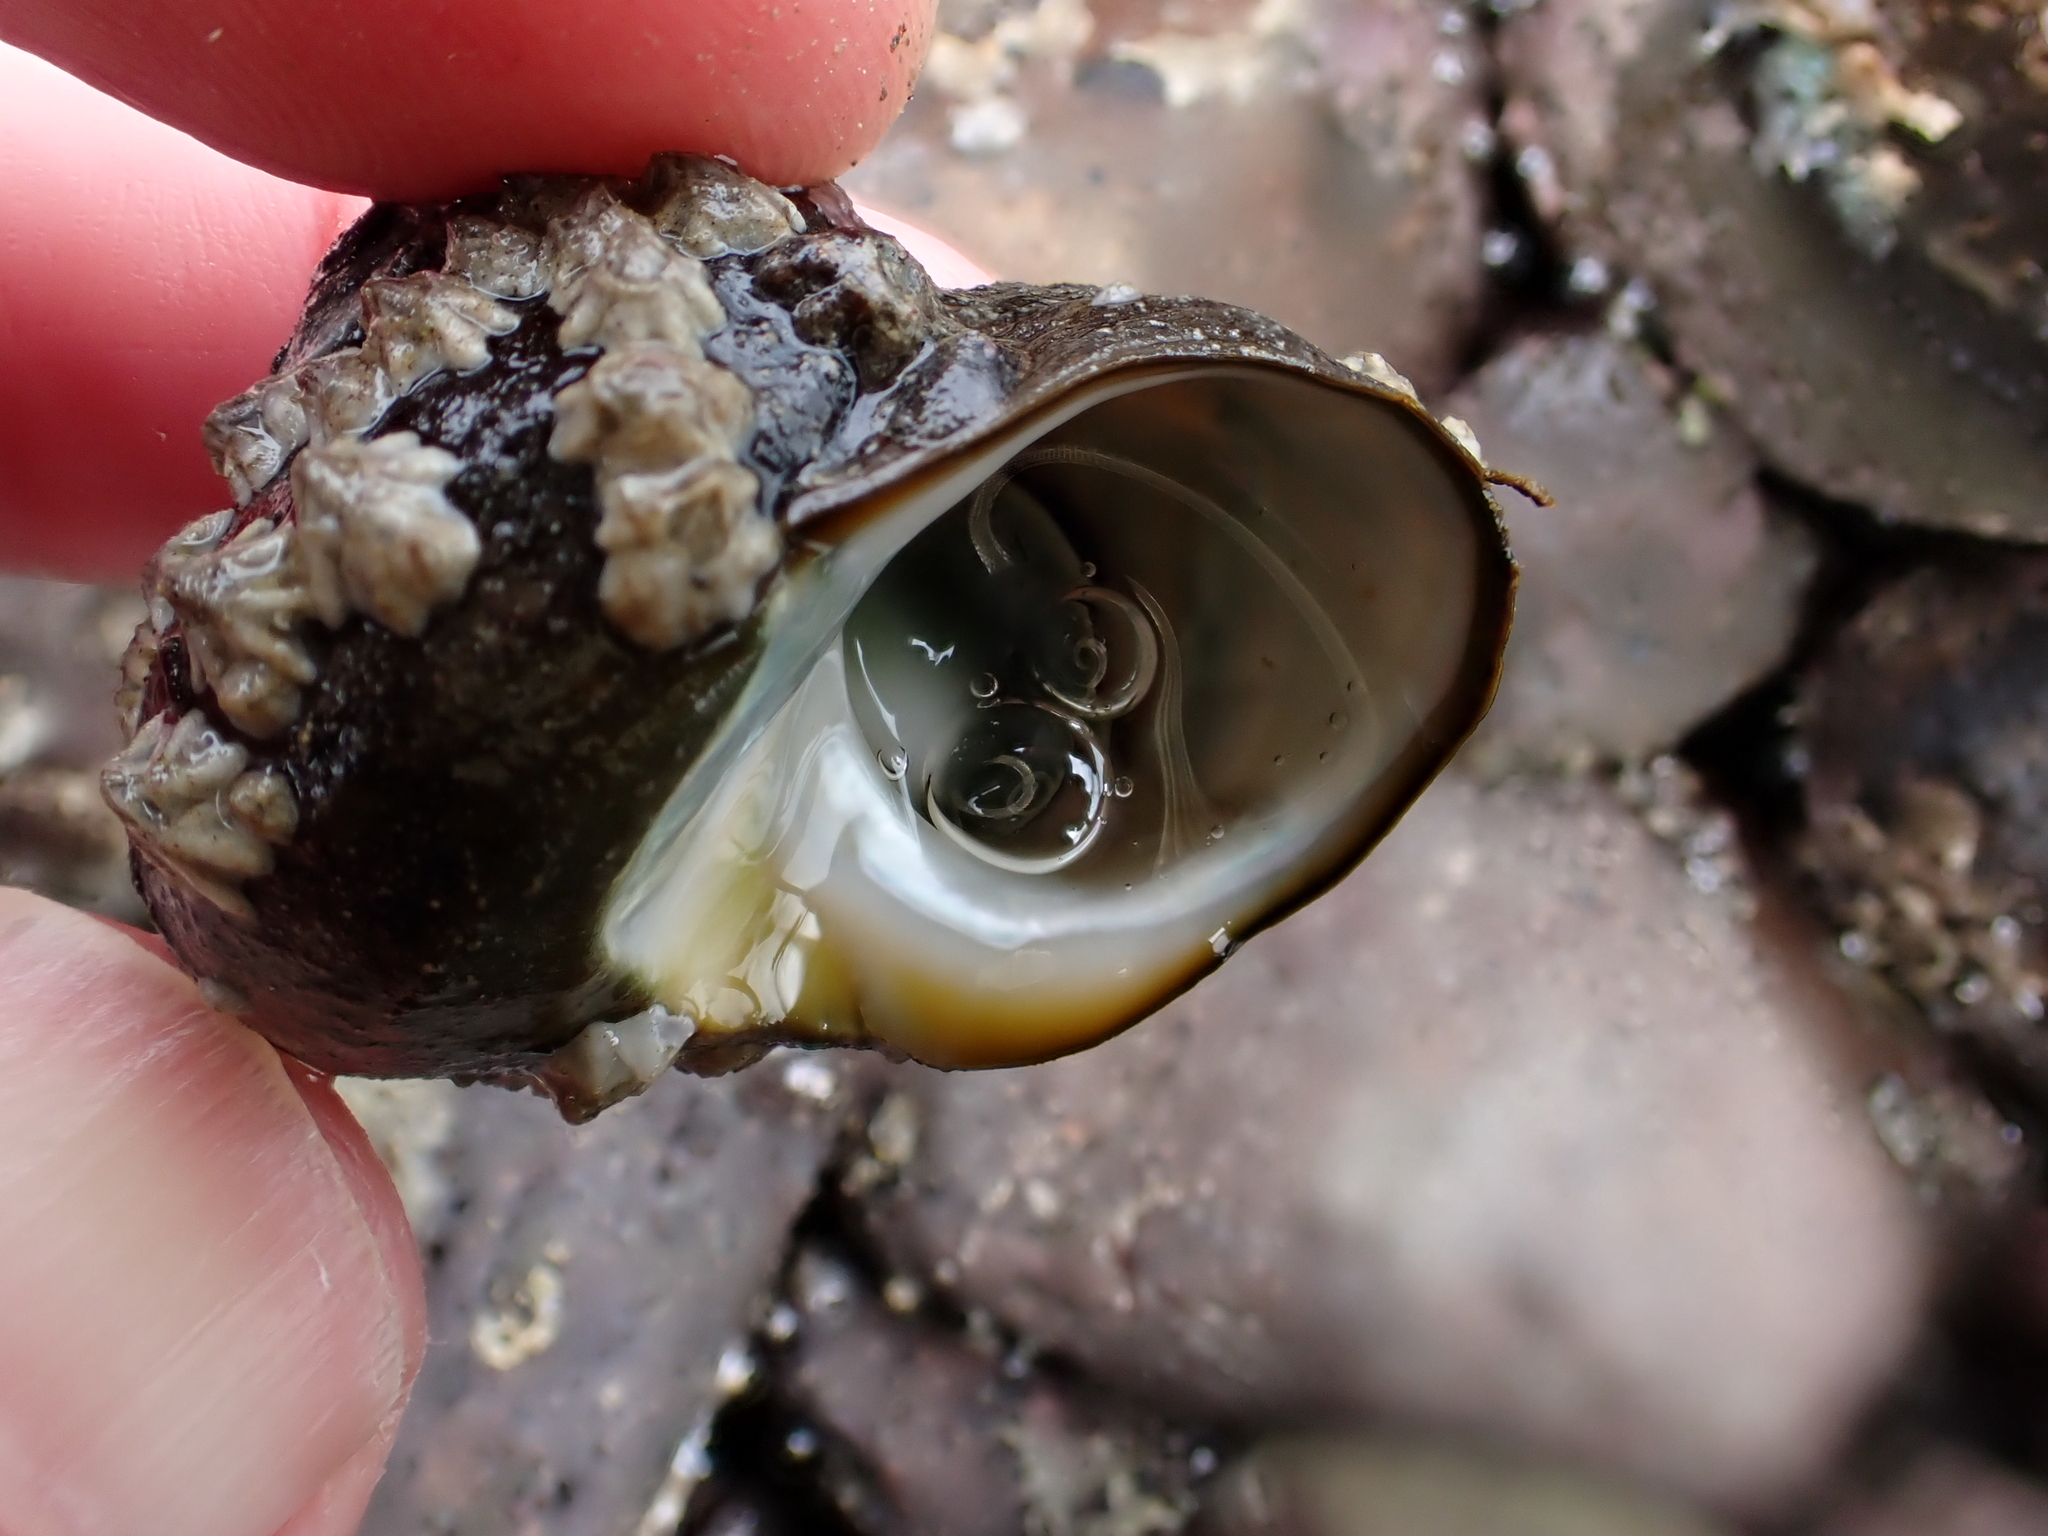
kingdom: Animalia
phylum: Mollusca
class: Gastropoda
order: Trochida
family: Turbinidae
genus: Lunella
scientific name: Lunella smaragda
